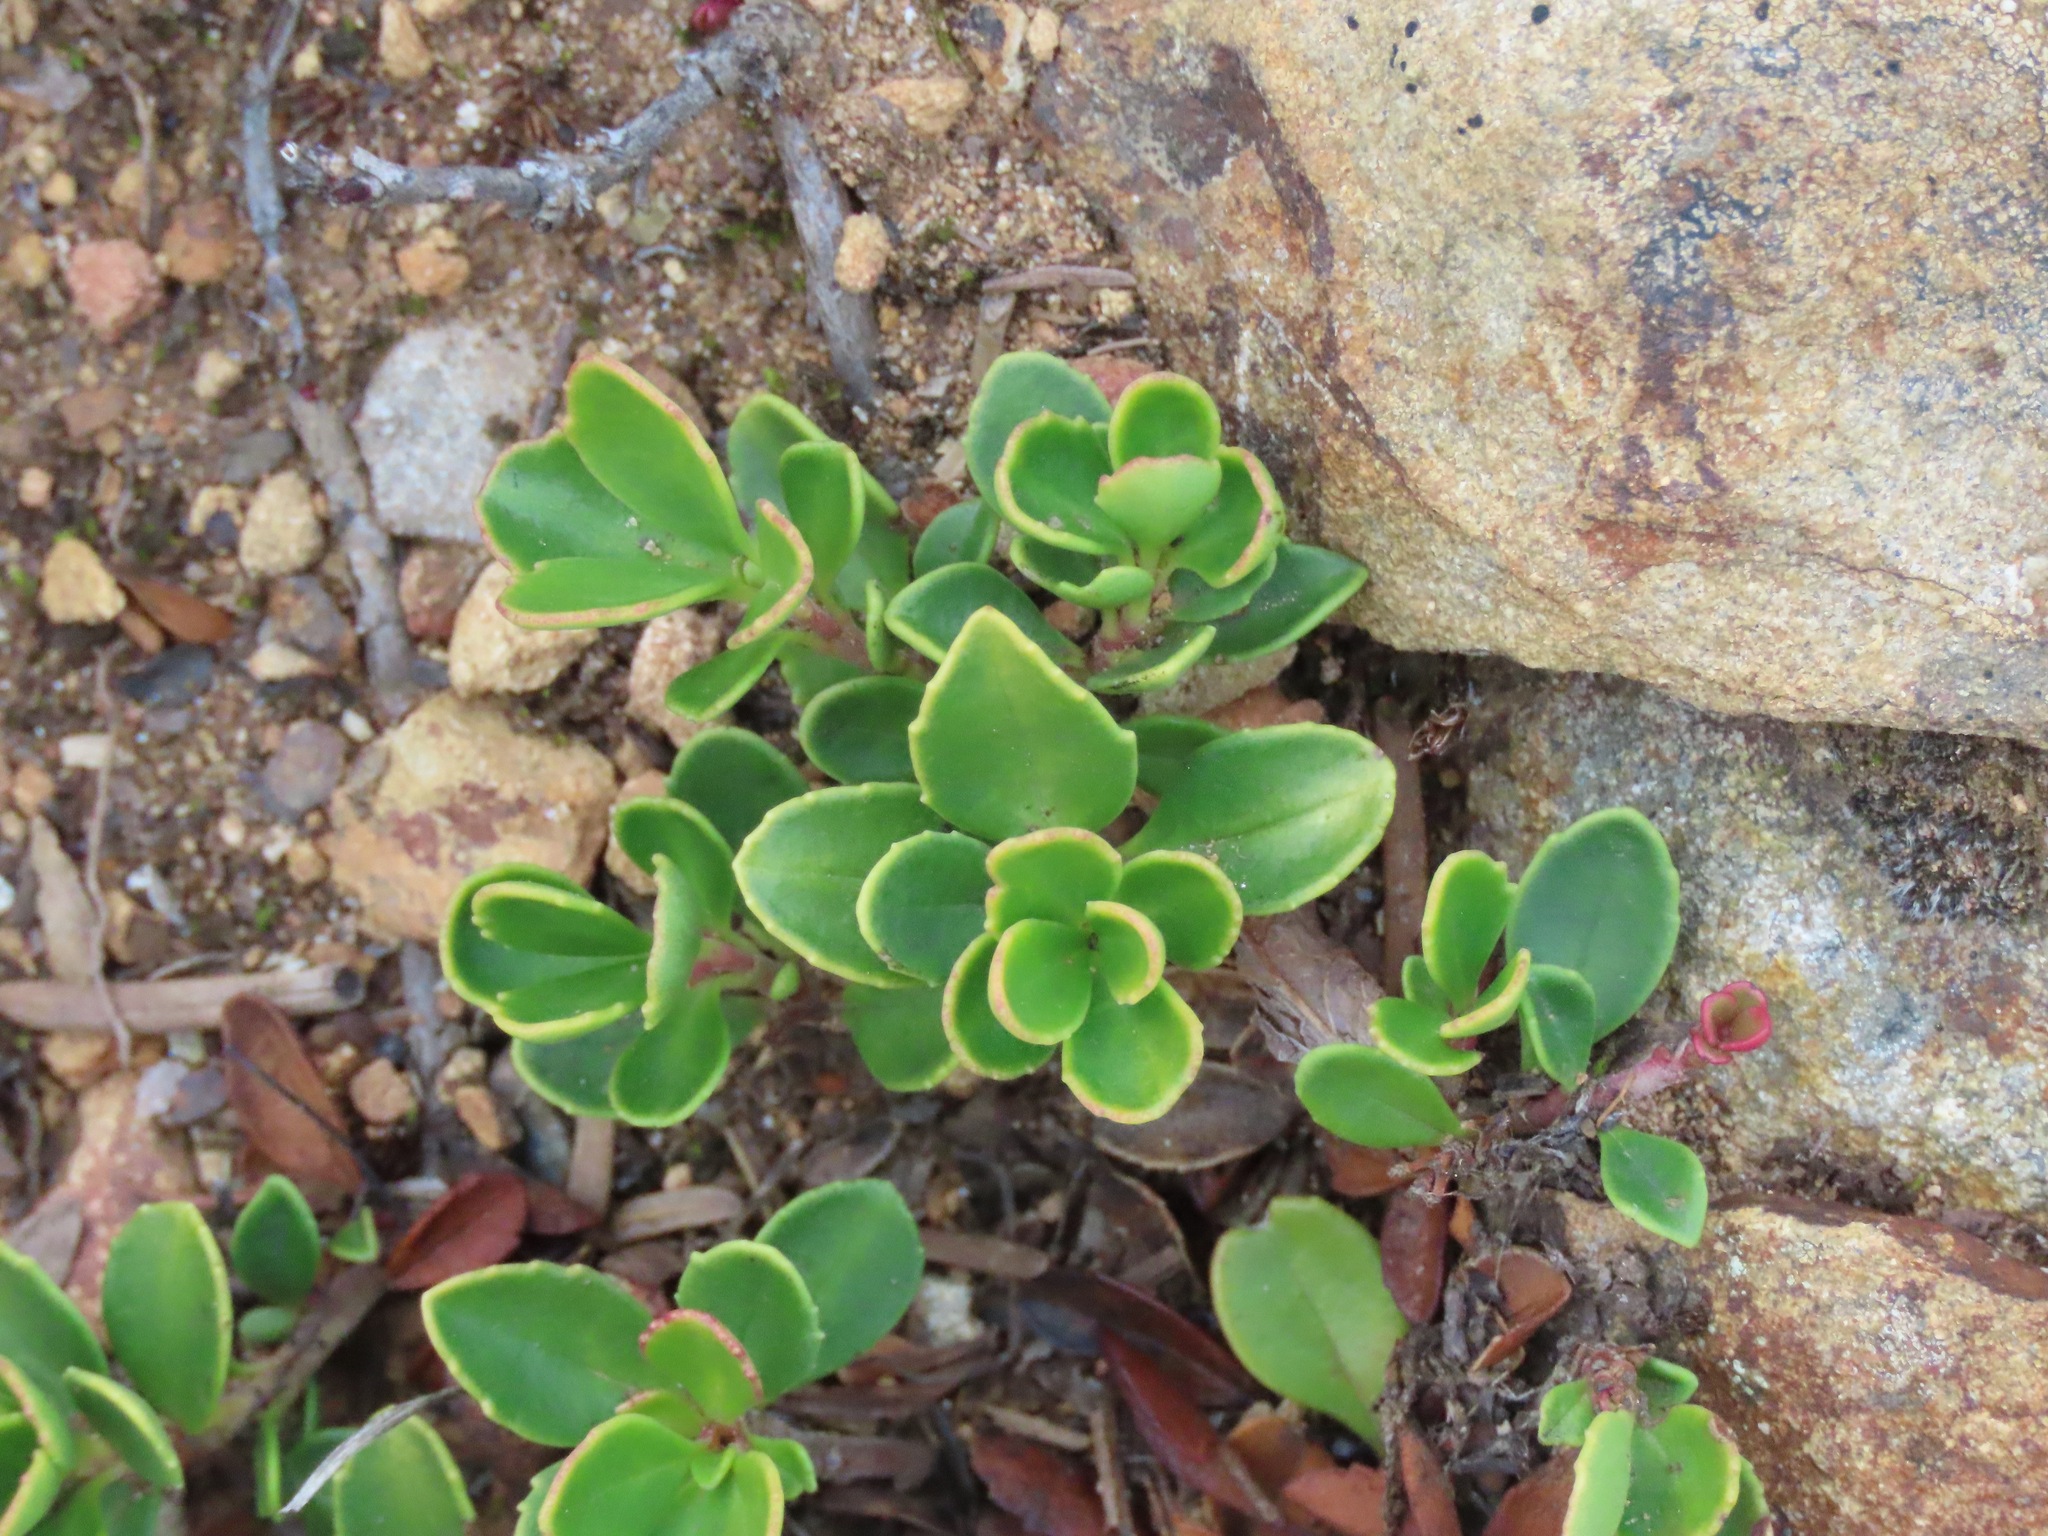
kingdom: Plantae
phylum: Tracheophyta
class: Magnoliopsida
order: Lamiales
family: Plantaginaceae
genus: Penstemon
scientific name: Penstemon davidsonii
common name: Davidson's penstemon
